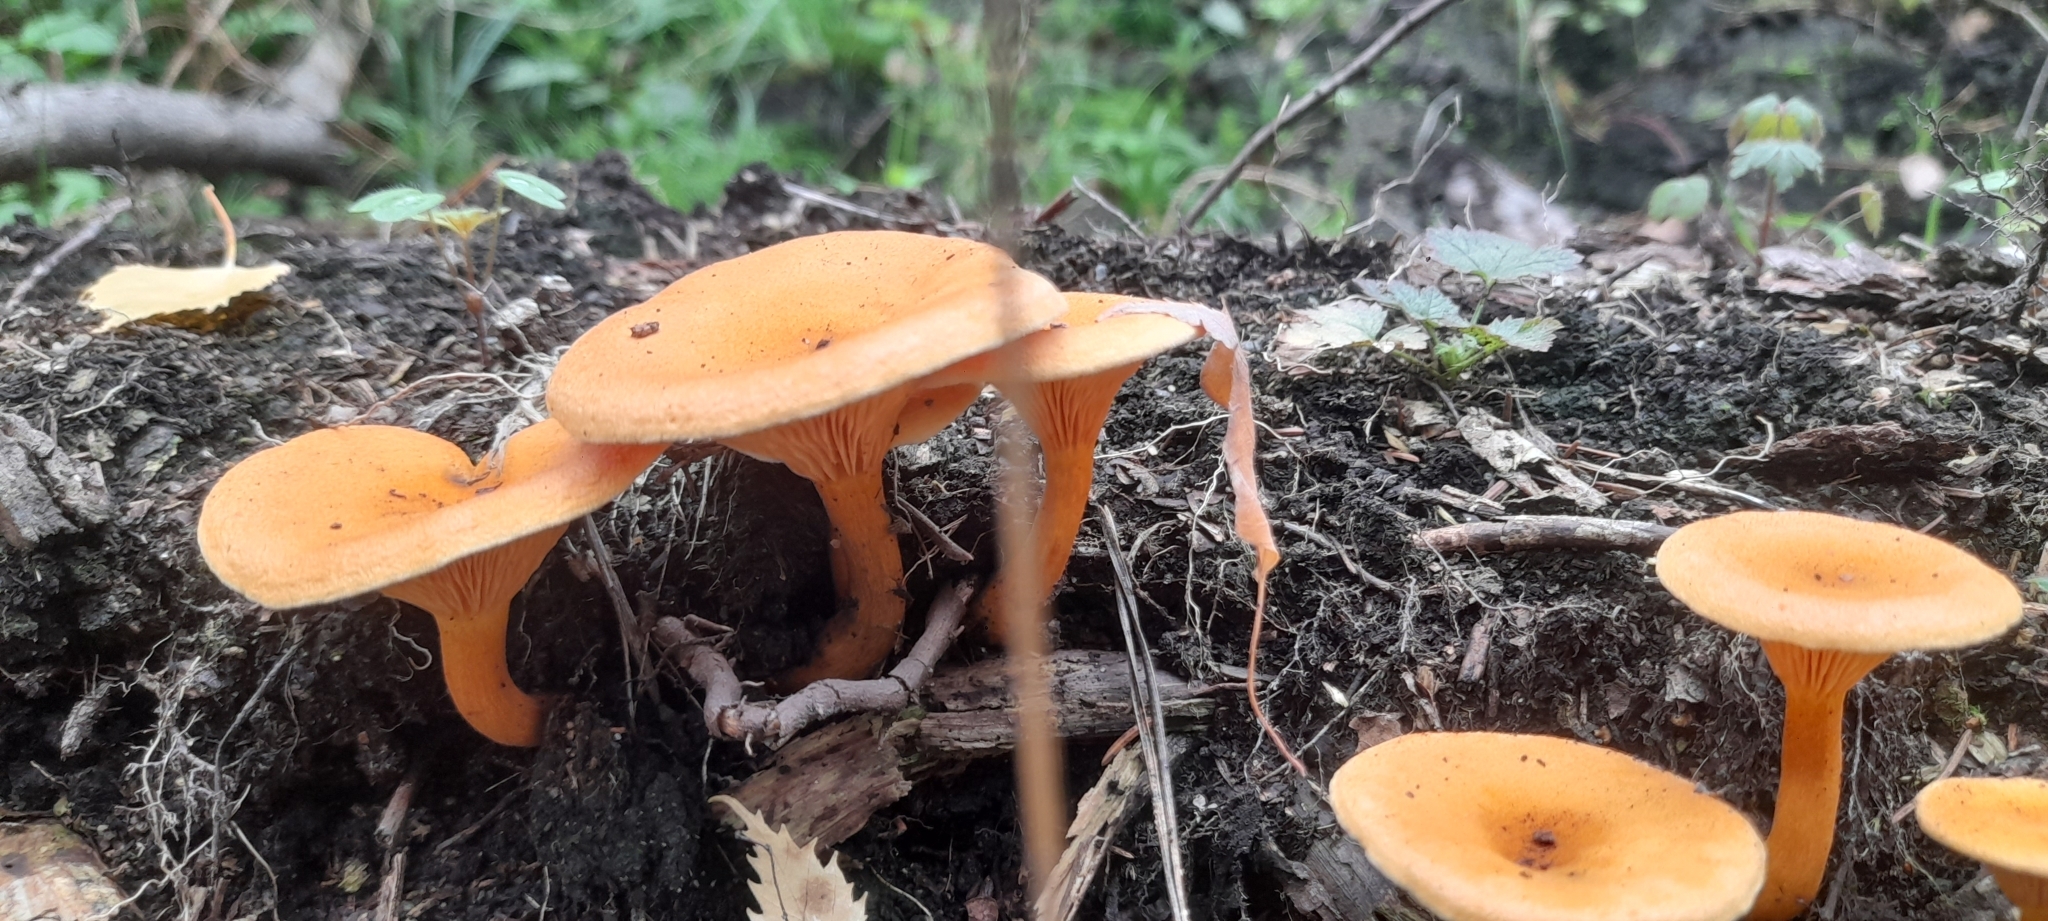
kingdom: Fungi
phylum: Basidiomycota
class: Agaricomycetes
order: Boletales
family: Hygrophoropsidaceae
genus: Hygrophoropsis
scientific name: Hygrophoropsis aurantiaca
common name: False chanterelle
